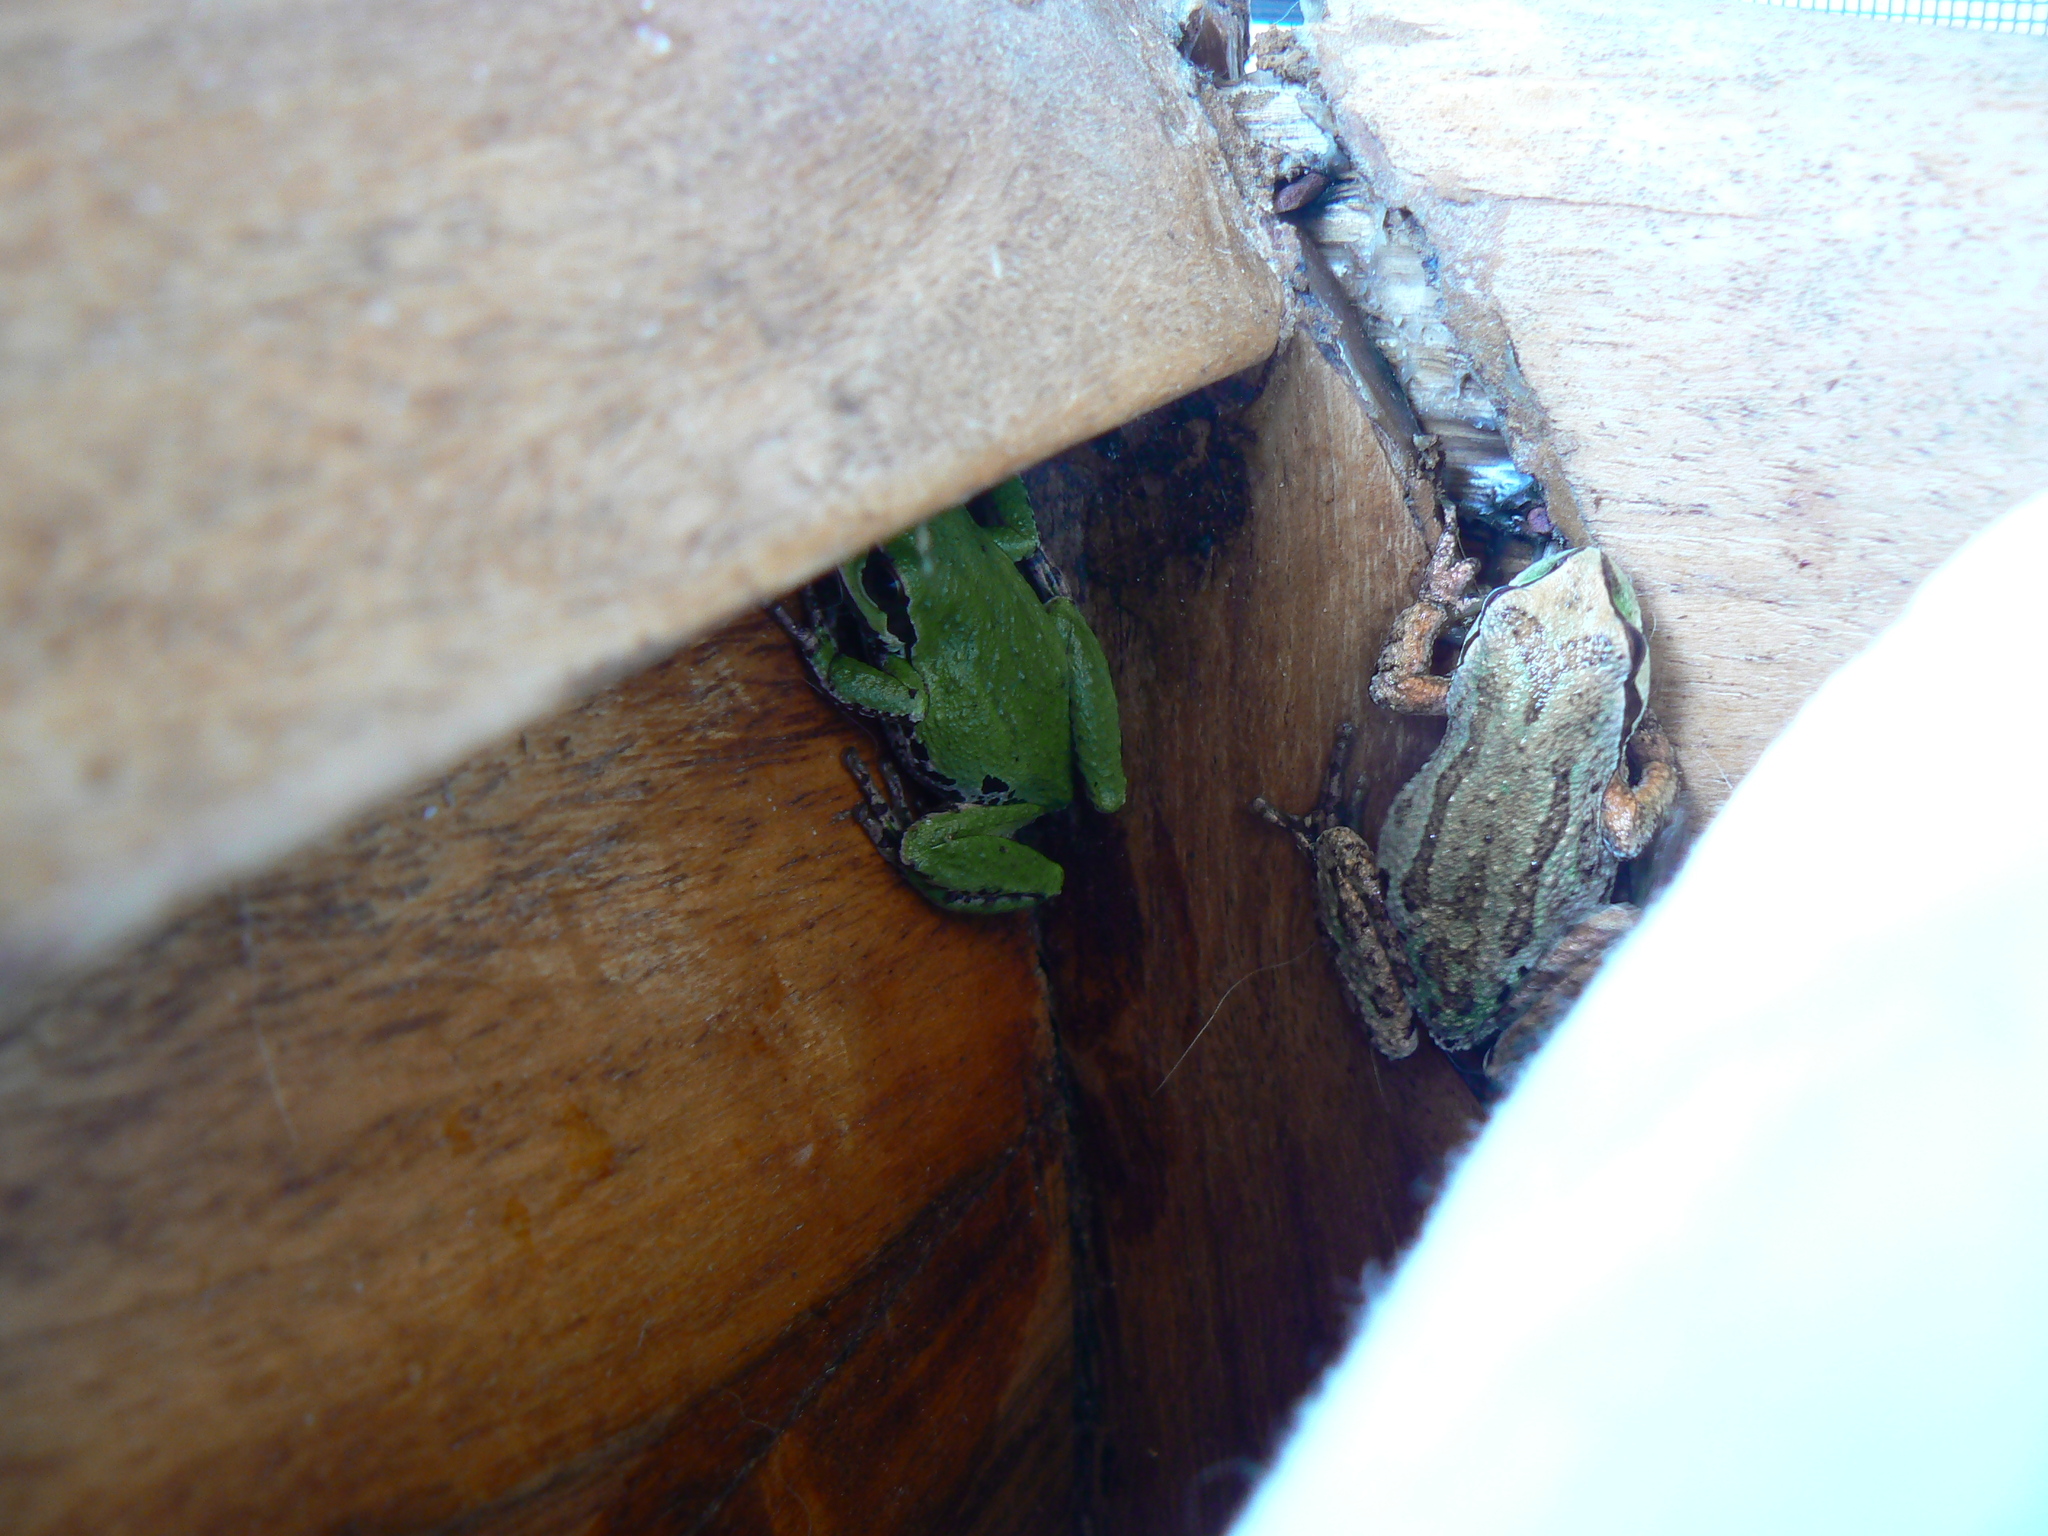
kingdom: Animalia
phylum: Chordata
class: Amphibia
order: Anura
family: Hylidae
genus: Pseudacris
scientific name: Pseudacris regilla
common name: Pacific chorus frog
